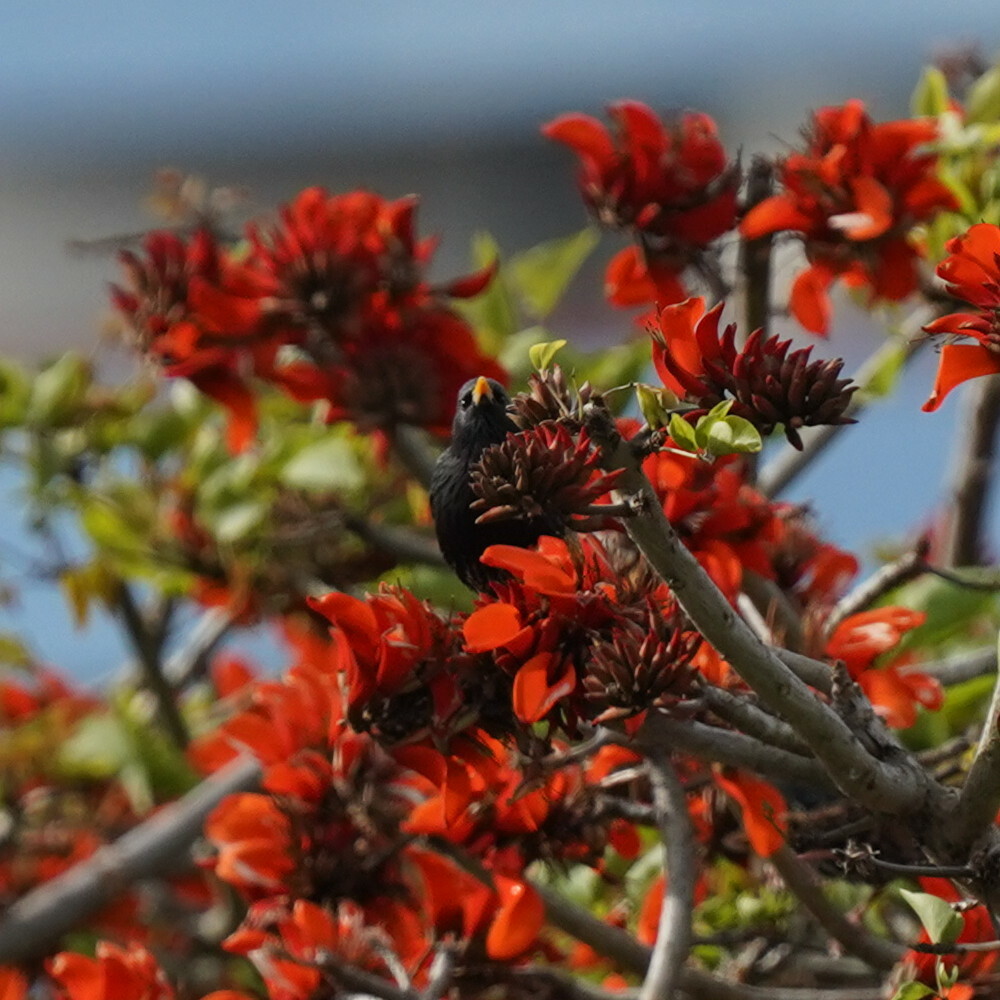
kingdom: Animalia
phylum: Chordata
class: Aves
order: Passeriformes
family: Sturnidae
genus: Sturnus
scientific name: Sturnus vulgaris
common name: Common starling
